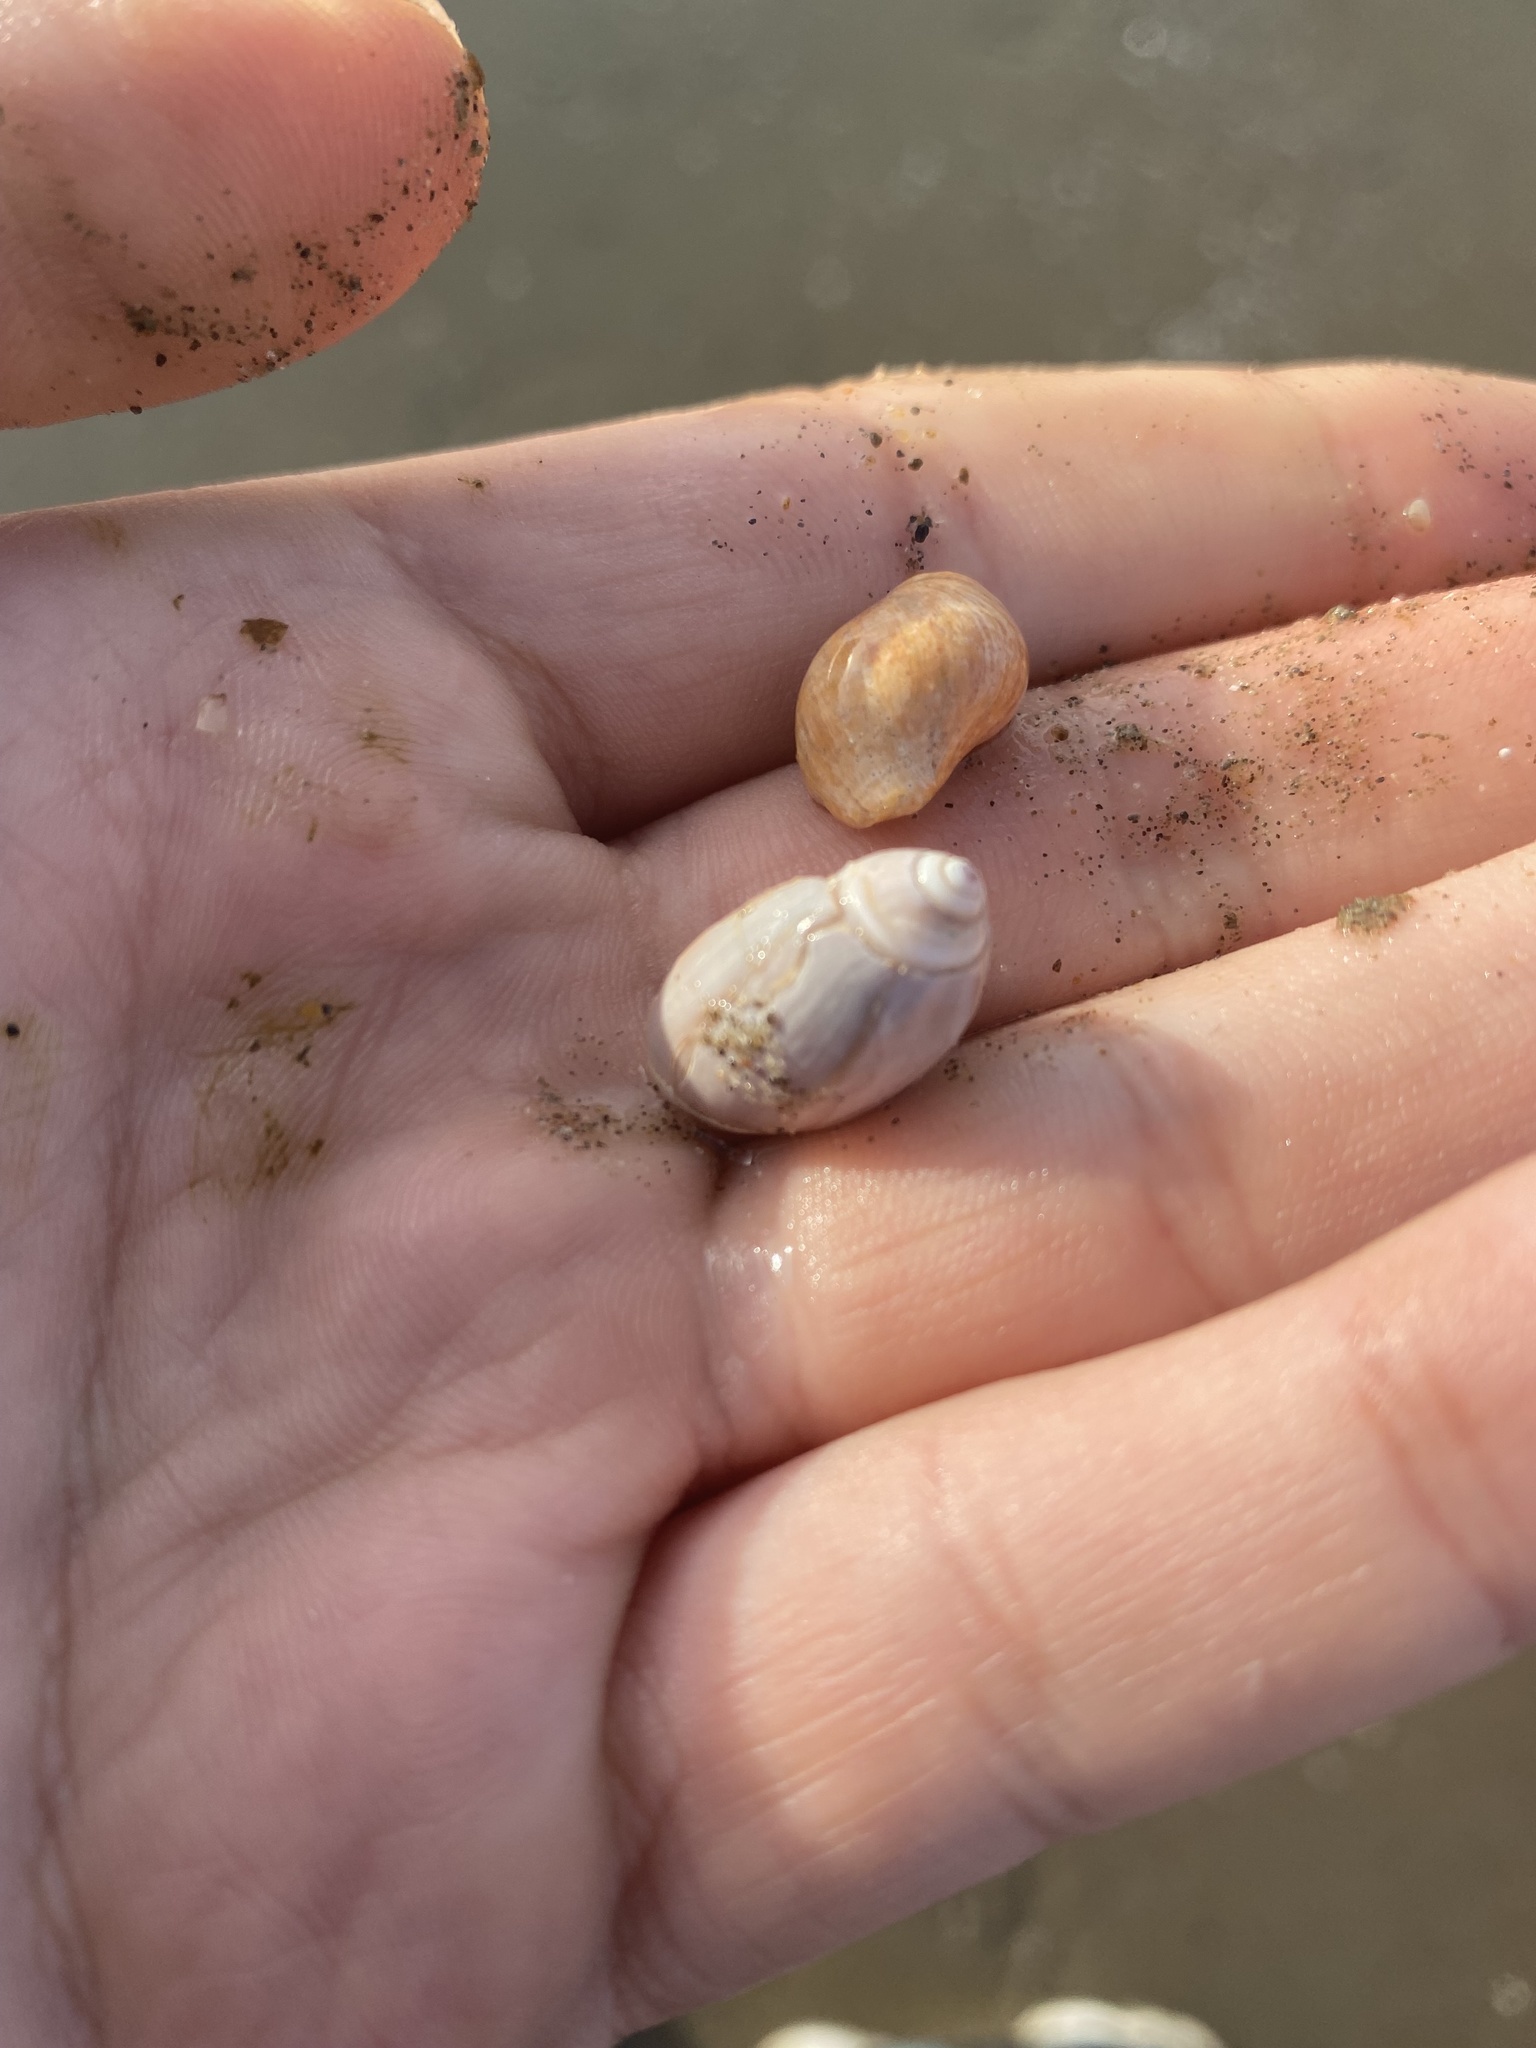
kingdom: Animalia
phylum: Mollusca
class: Gastropoda
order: Neogastropoda
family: Olividae
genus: Callianax
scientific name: Callianax biplicata
